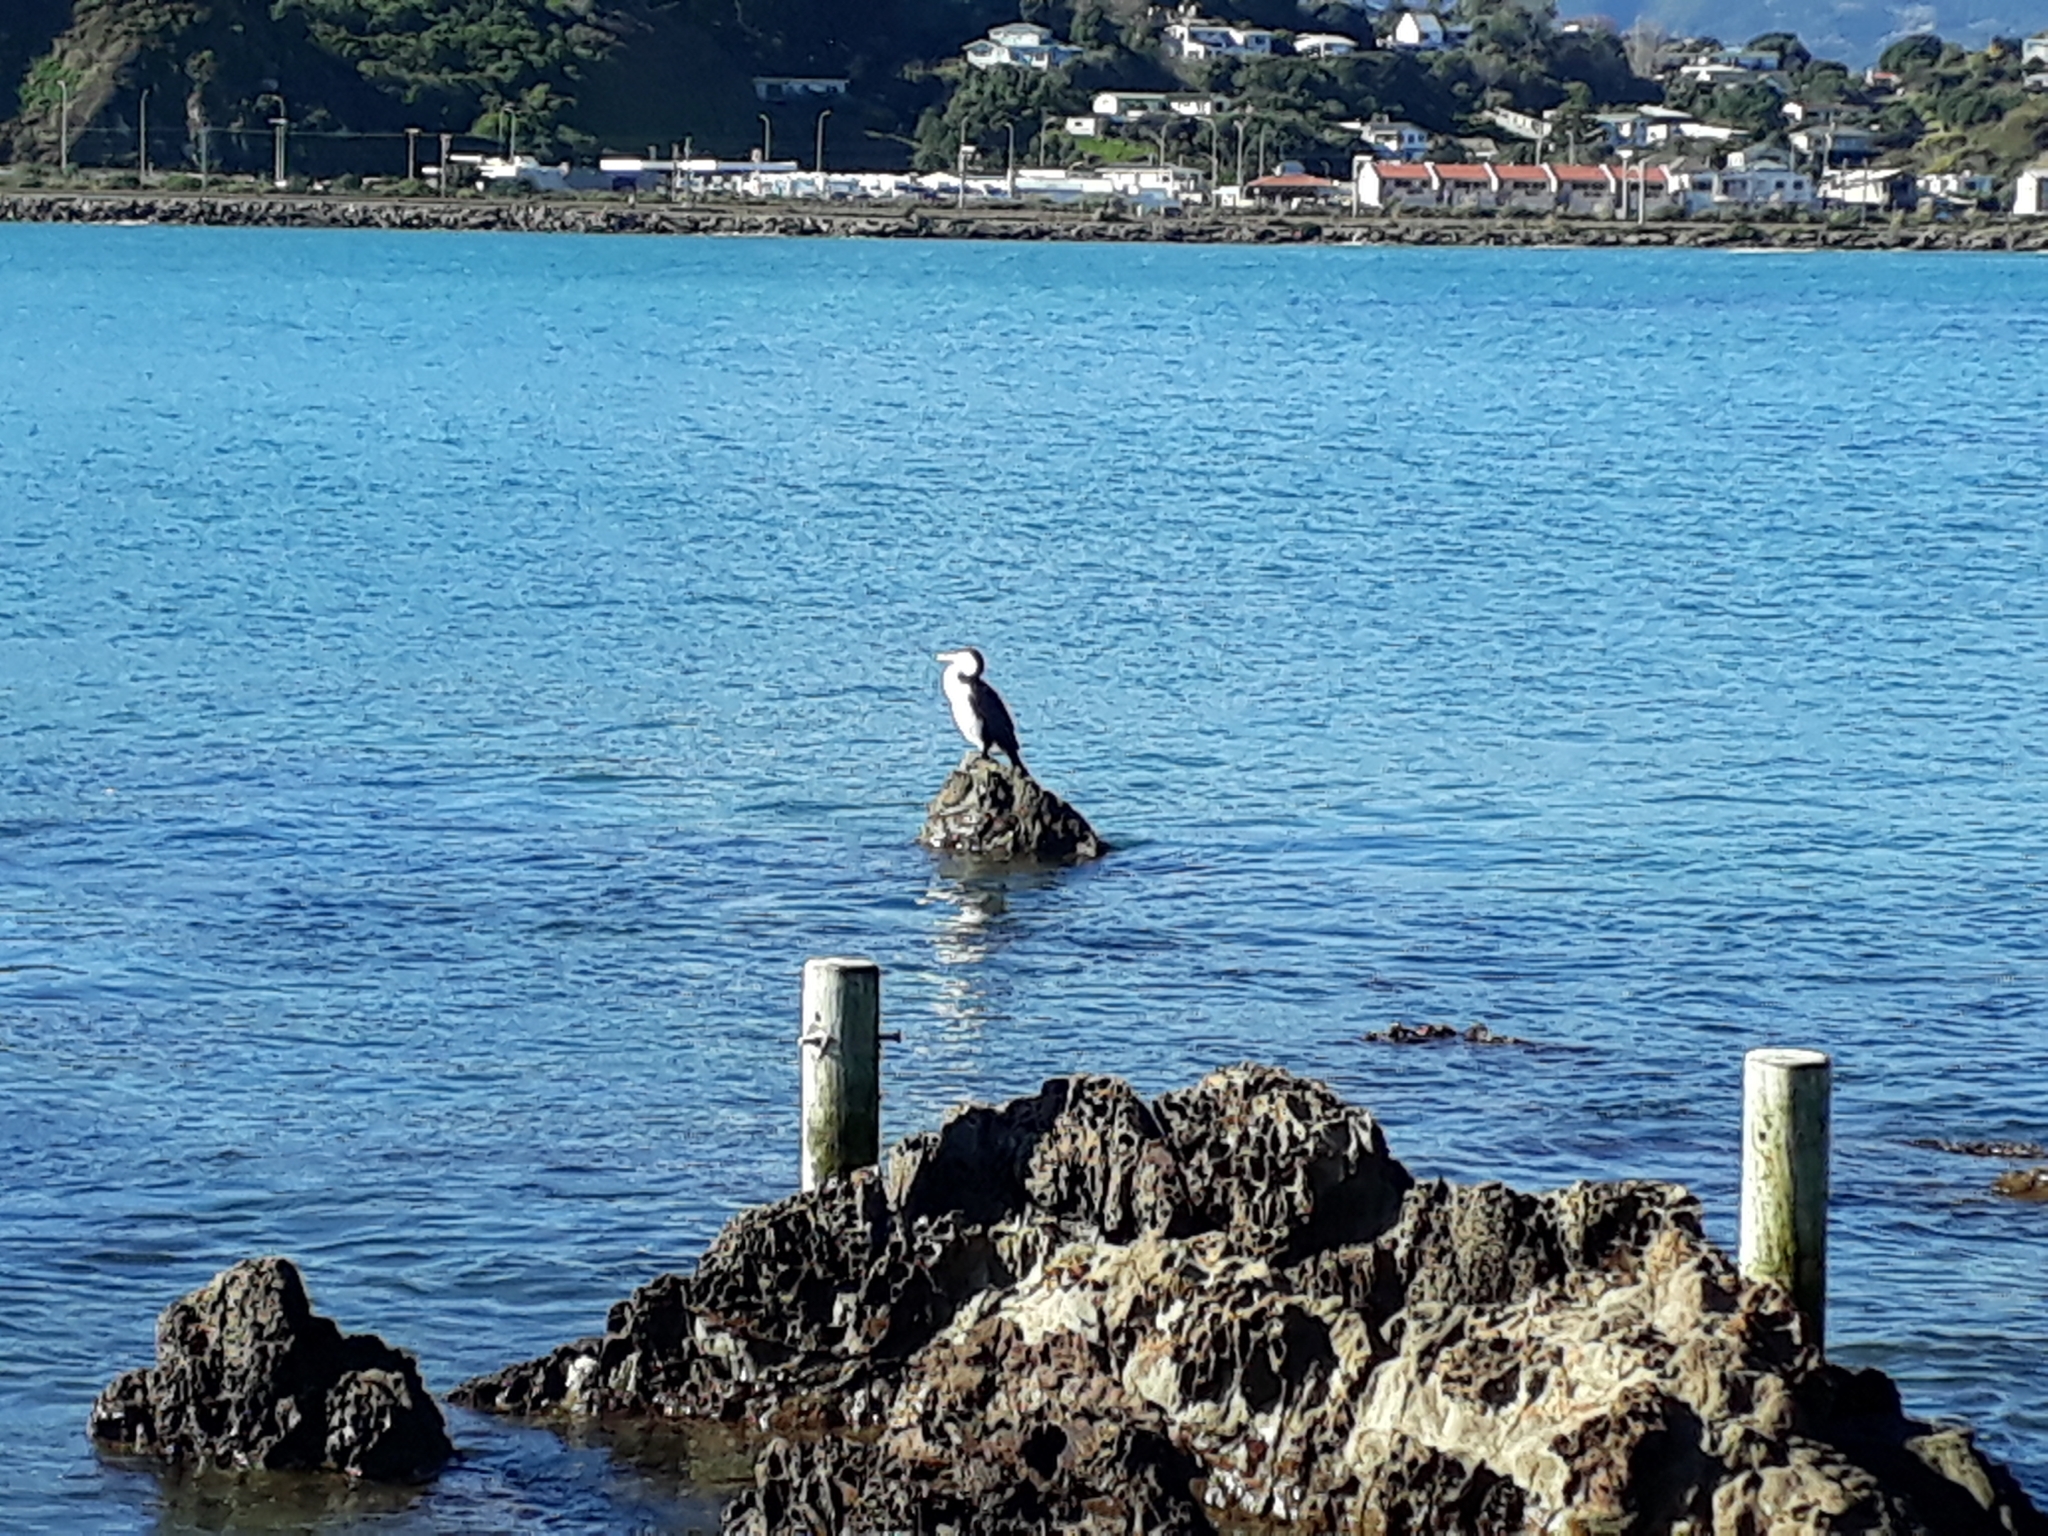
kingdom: Animalia
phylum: Chordata
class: Aves
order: Suliformes
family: Phalacrocoracidae
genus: Phalacrocorax
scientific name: Phalacrocorax varius
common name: Pied cormorant
